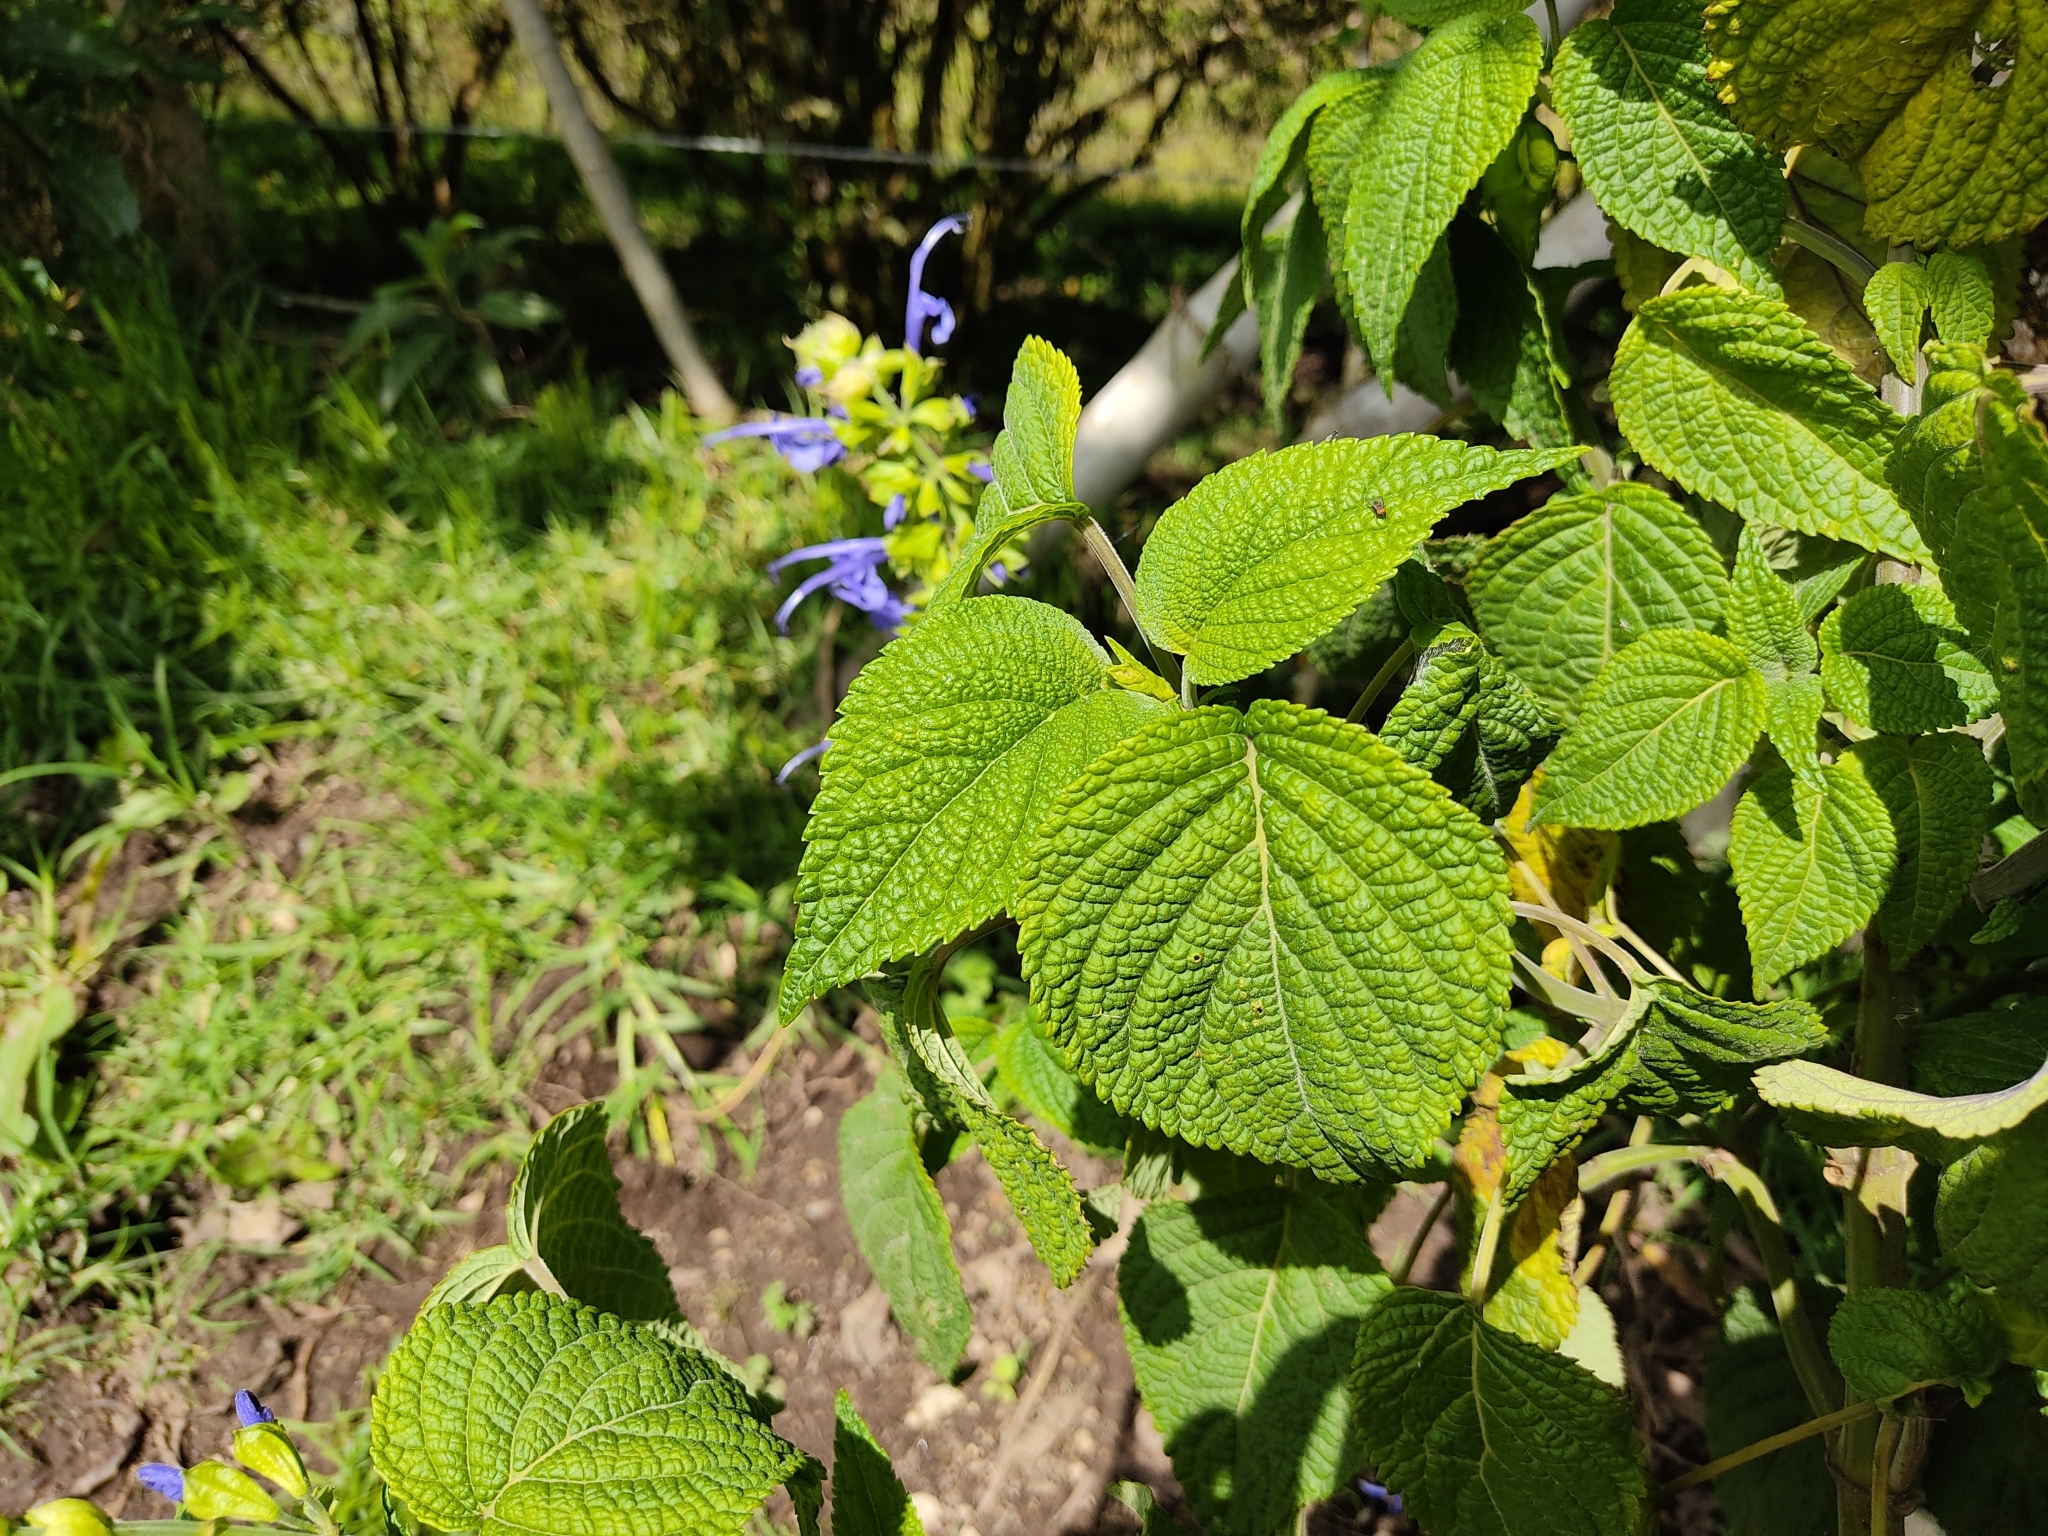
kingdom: Plantae
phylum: Tracheophyta
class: Magnoliopsida
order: Lamiales
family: Lamiaceae
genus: Salvia
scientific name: Salvia pichinchensis
